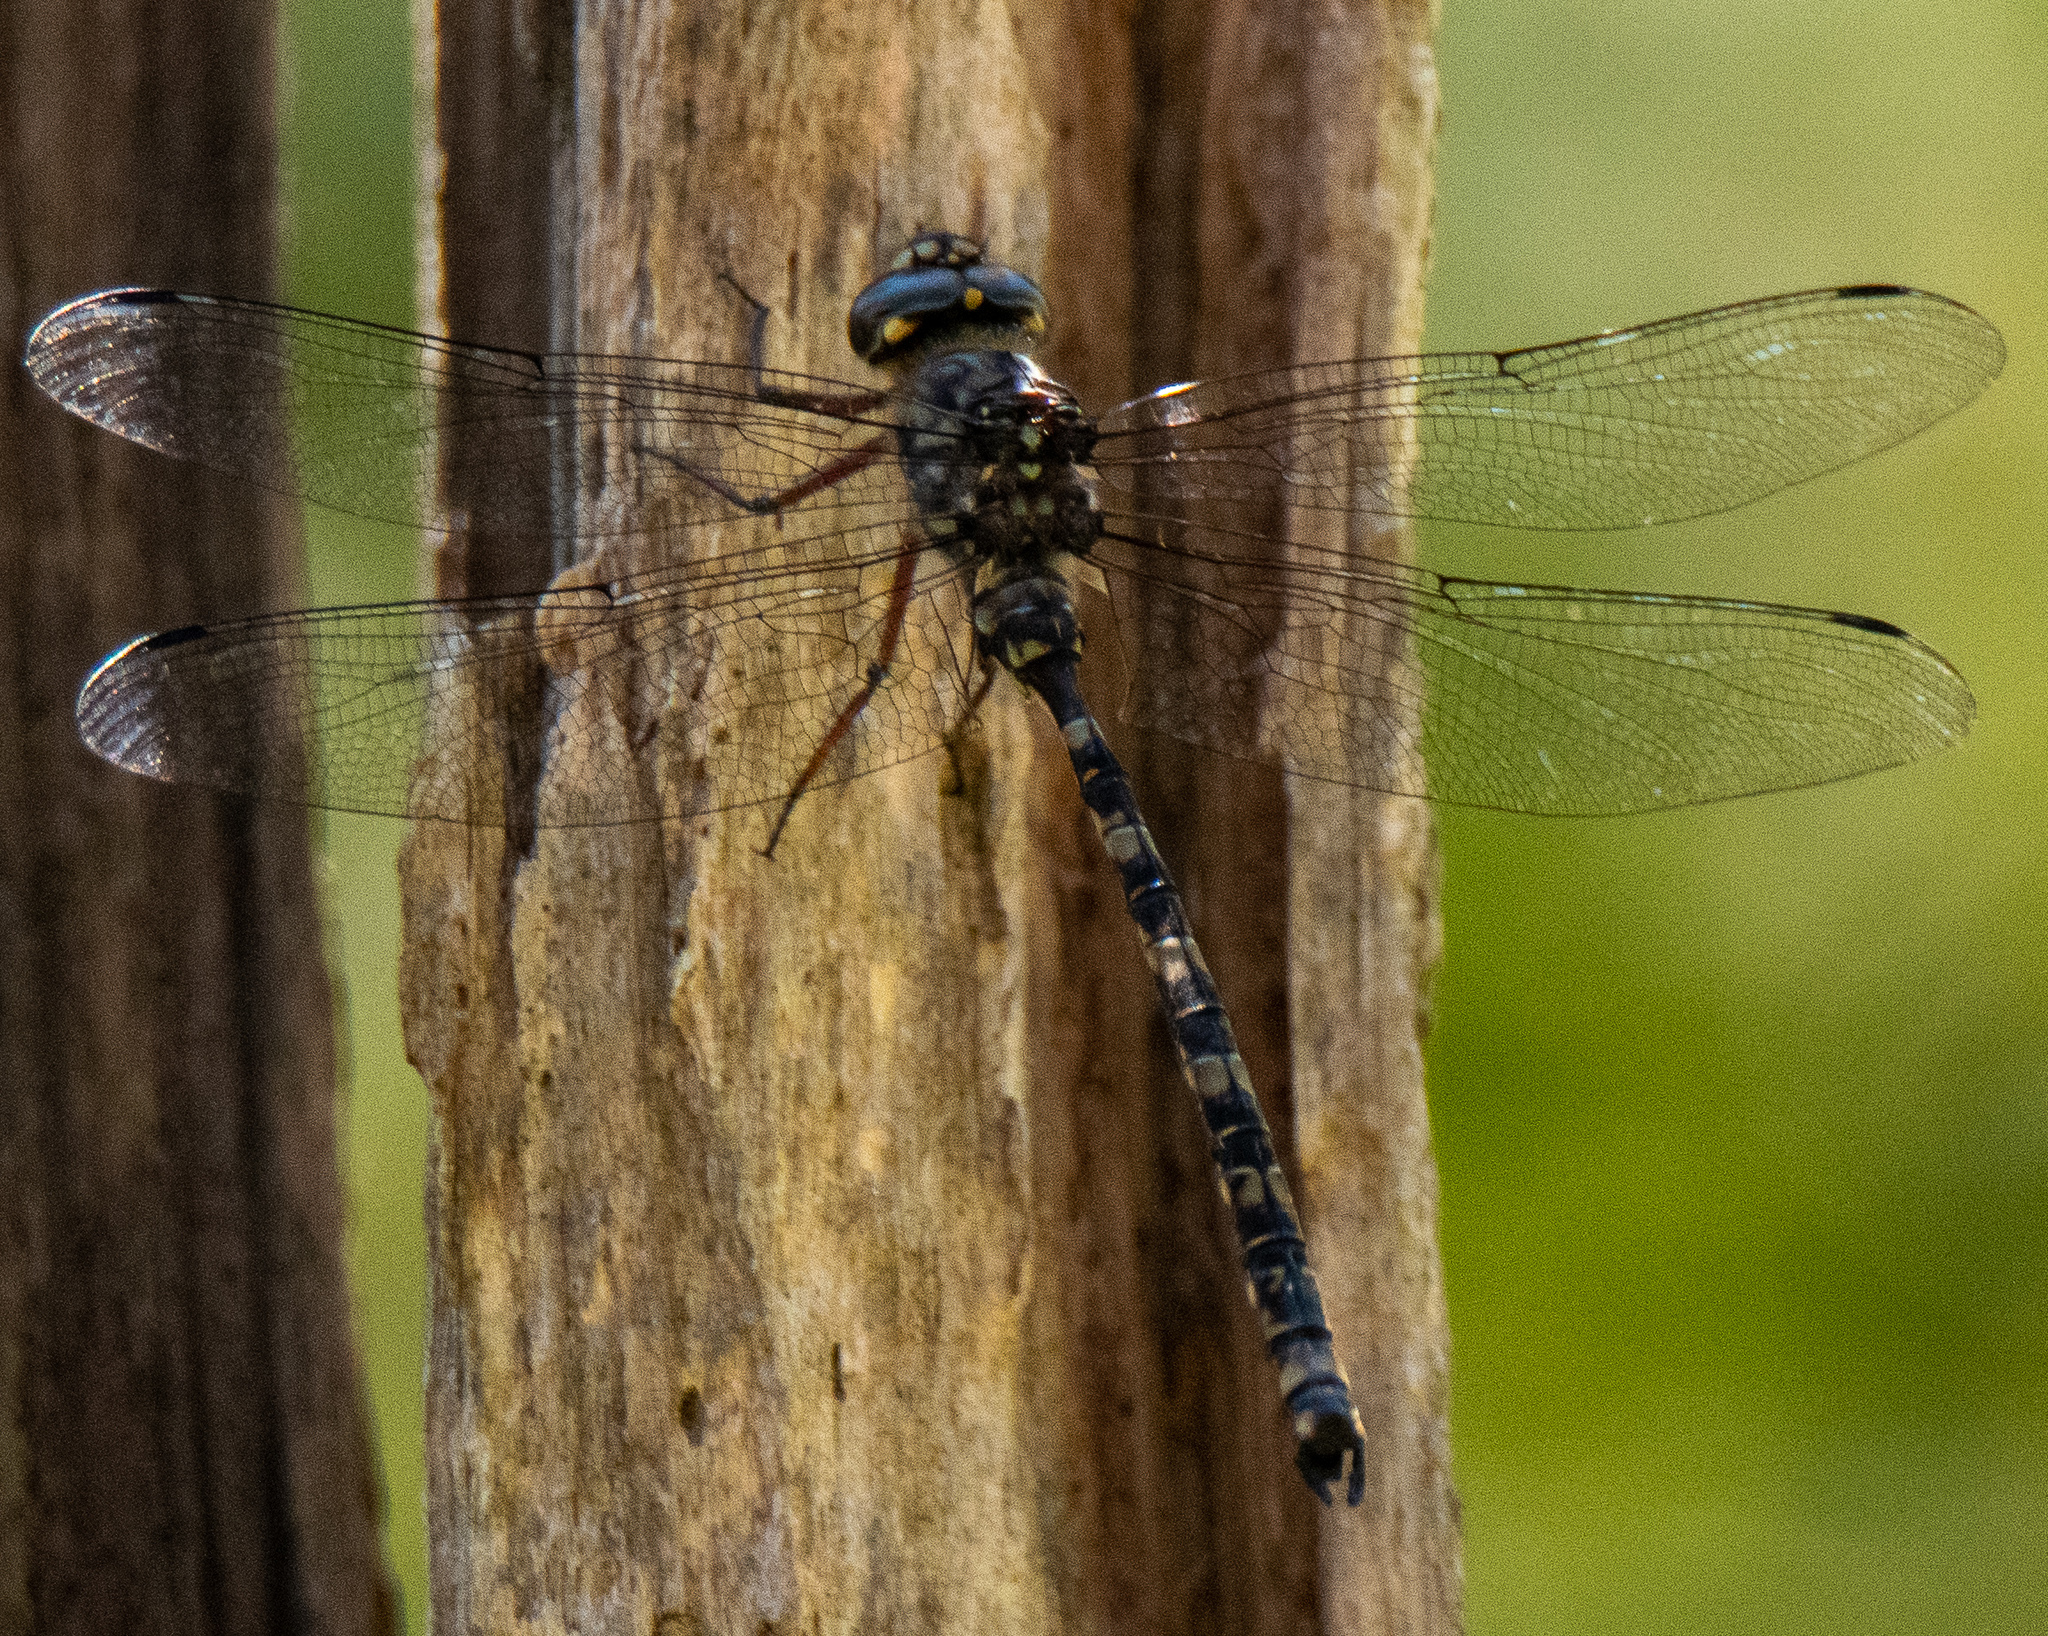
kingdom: Animalia
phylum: Arthropoda
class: Insecta
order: Odonata
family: Aeshnidae
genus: Austroaeschna
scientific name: Austroaeschna subapicalis
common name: Conehead darner
